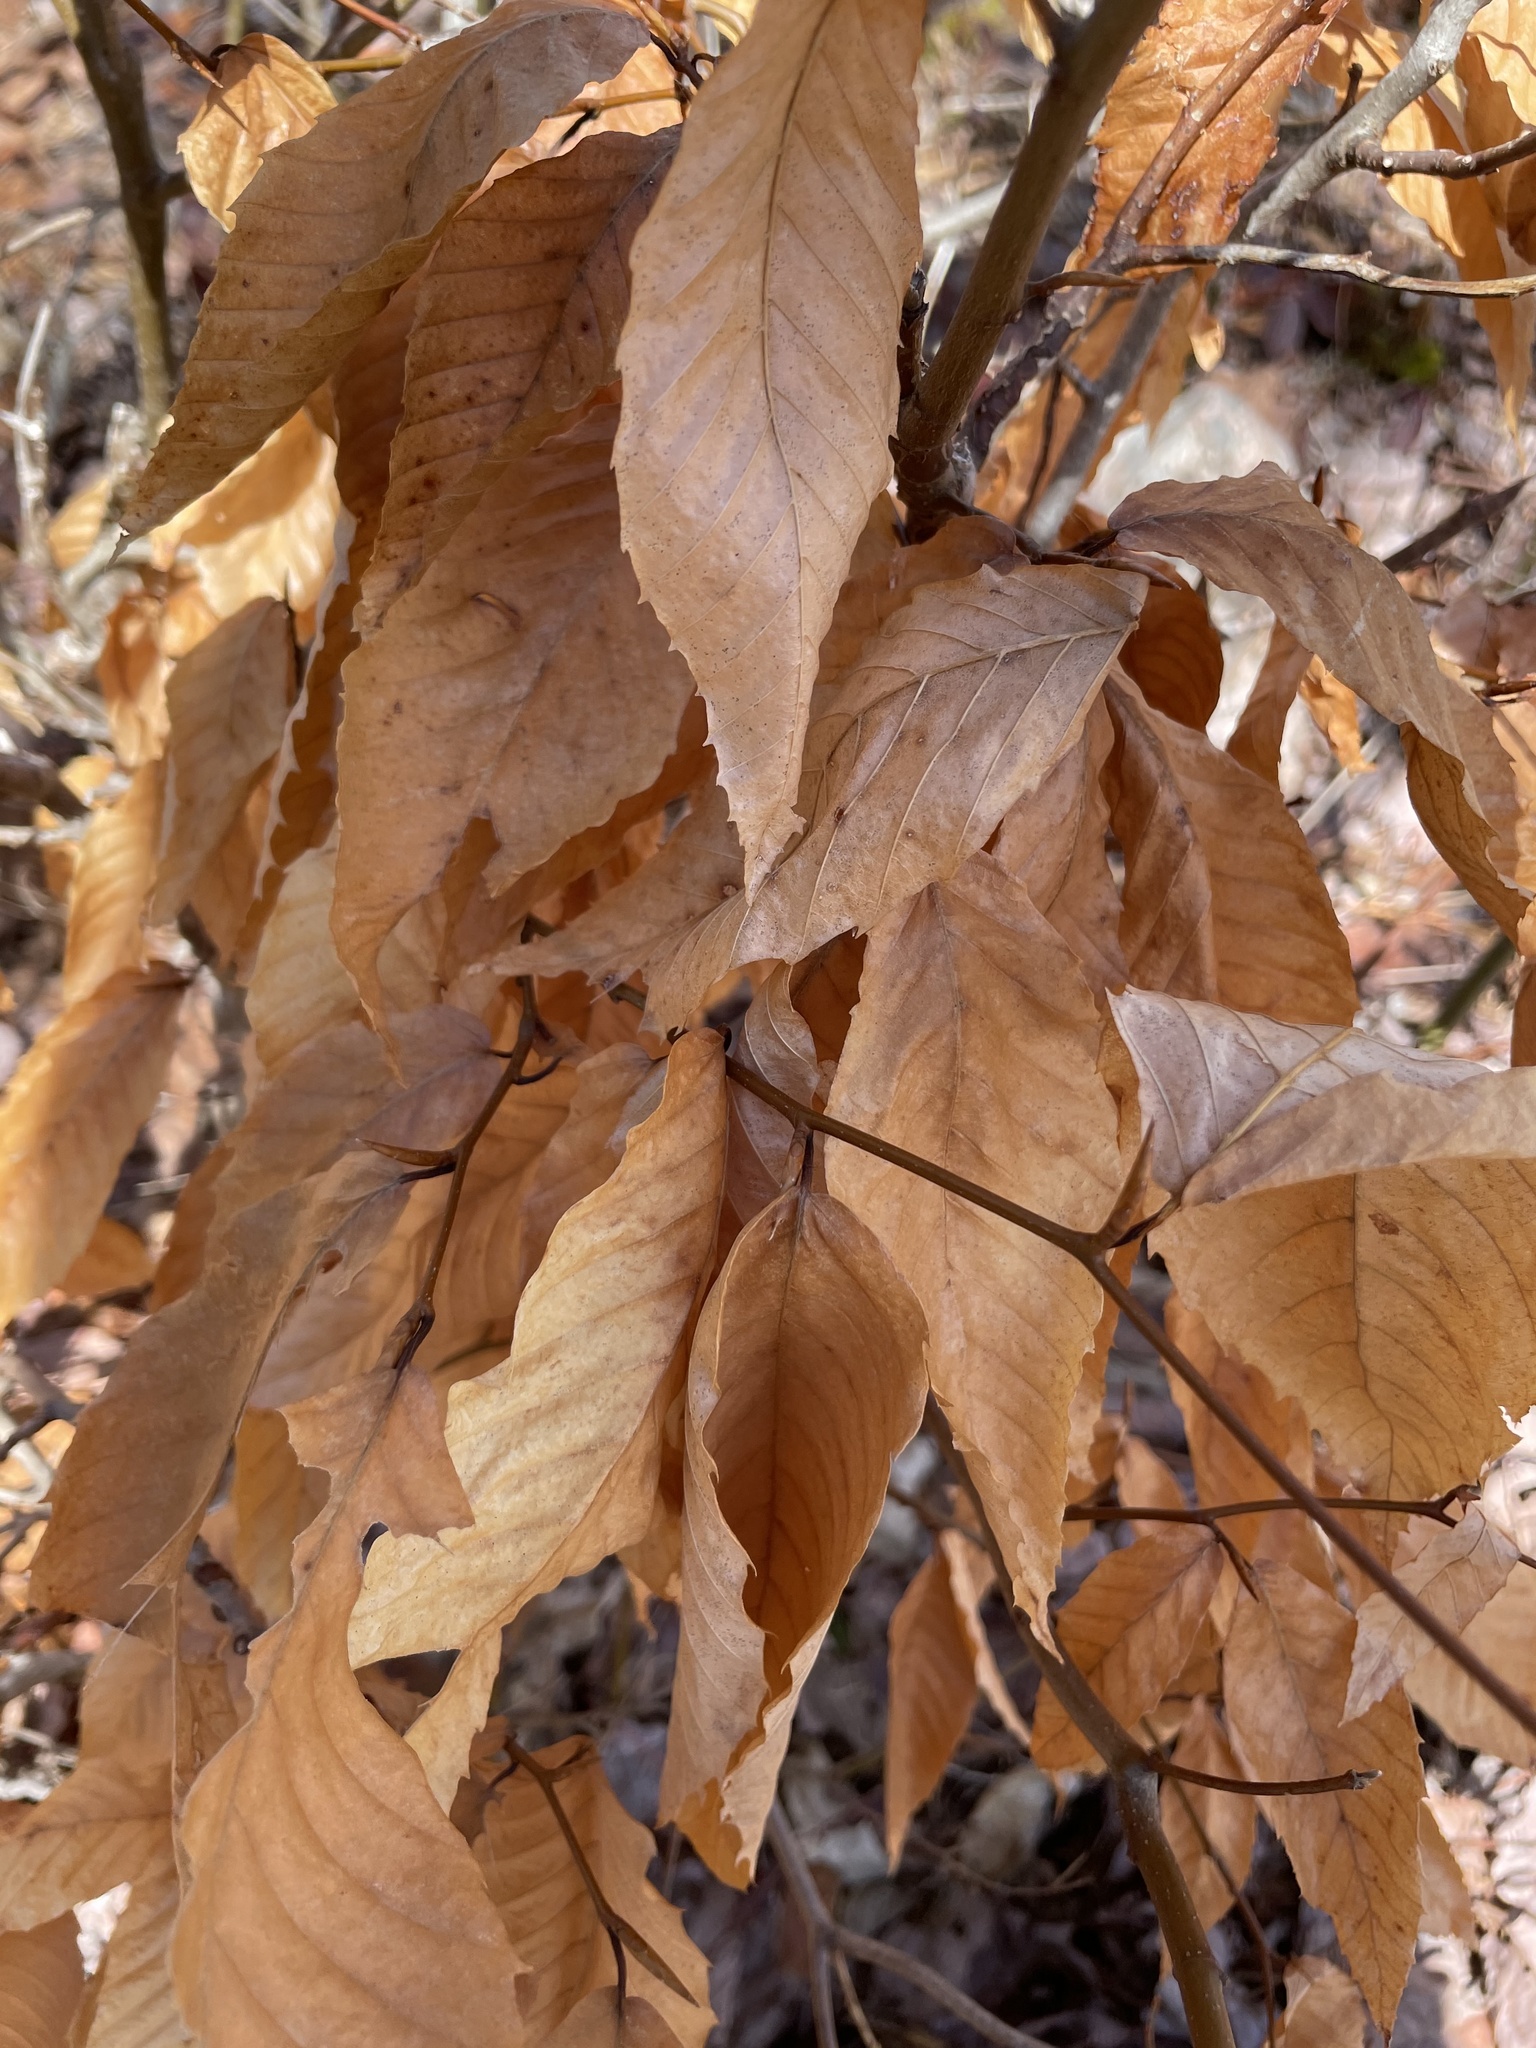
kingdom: Plantae
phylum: Tracheophyta
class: Magnoliopsida
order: Fagales
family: Fagaceae
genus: Fagus
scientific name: Fagus grandifolia
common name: American beech
